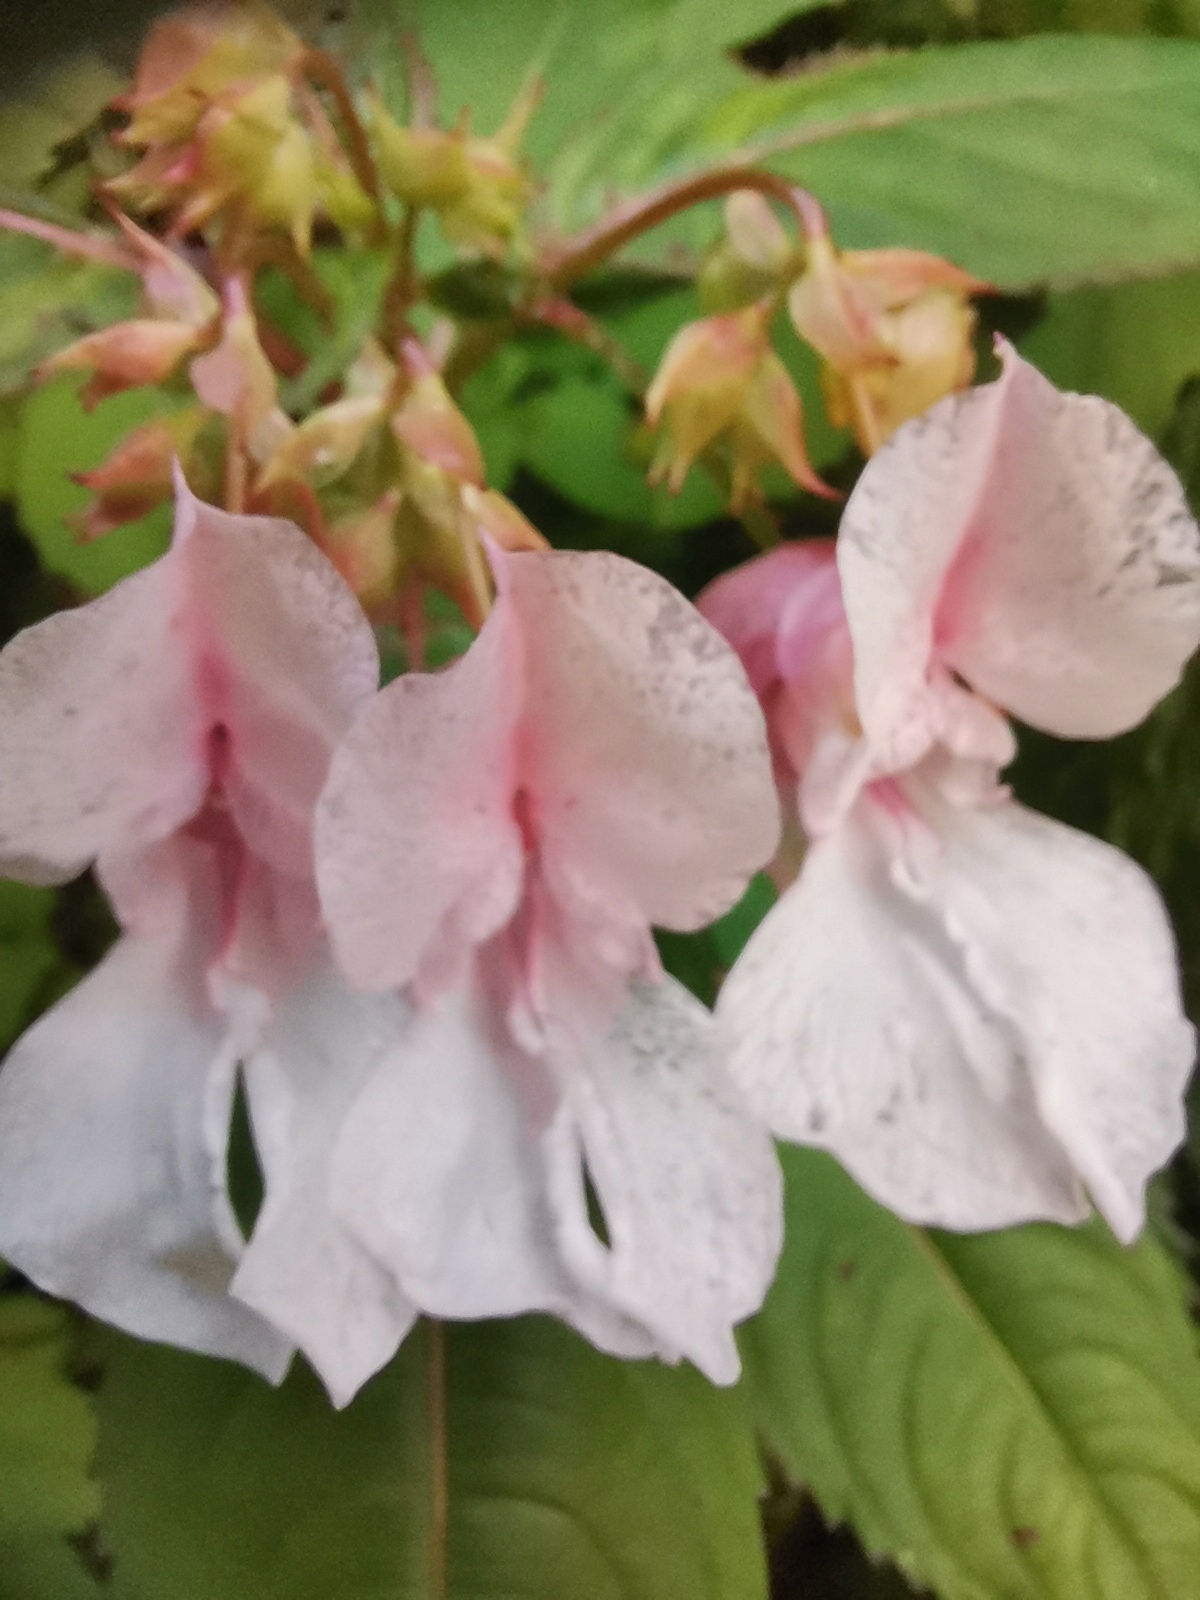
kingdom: Plantae
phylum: Tracheophyta
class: Magnoliopsida
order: Ericales
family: Balsaminaceae
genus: Impatiens
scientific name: Impatiens glandulifera
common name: Himalayan balsam
